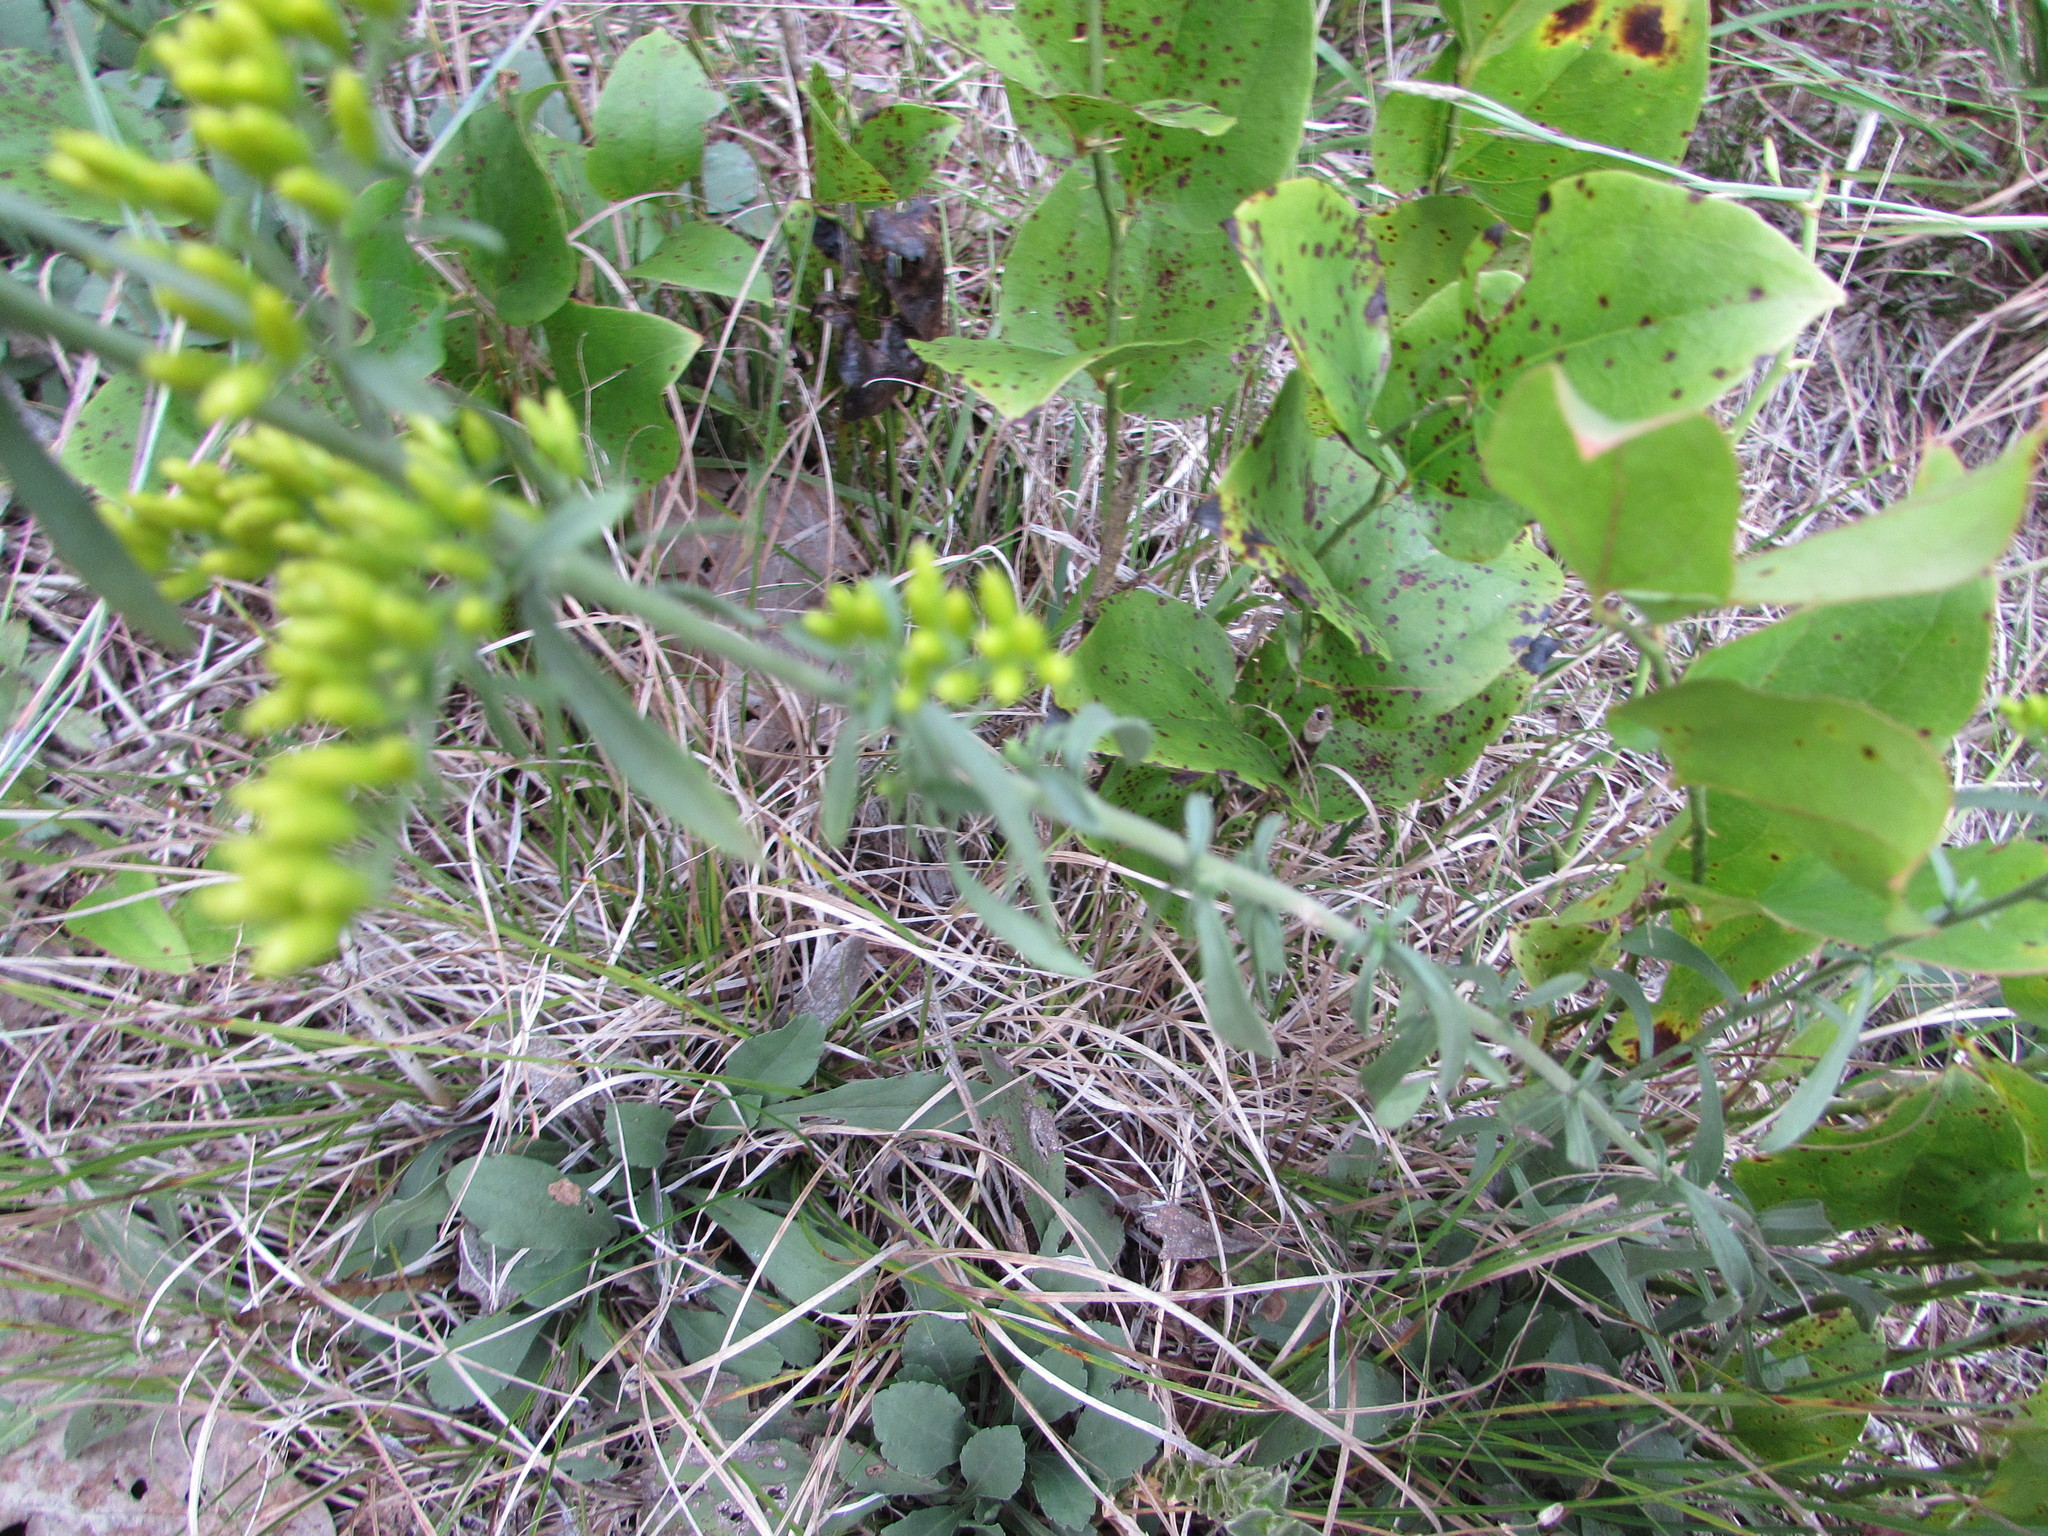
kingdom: Plantae
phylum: Tracheophyta
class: Magnoliopsida
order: Asterales
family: Asteraceae
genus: Solidago
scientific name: Solidago nemoralis
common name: Grey goldenrod
